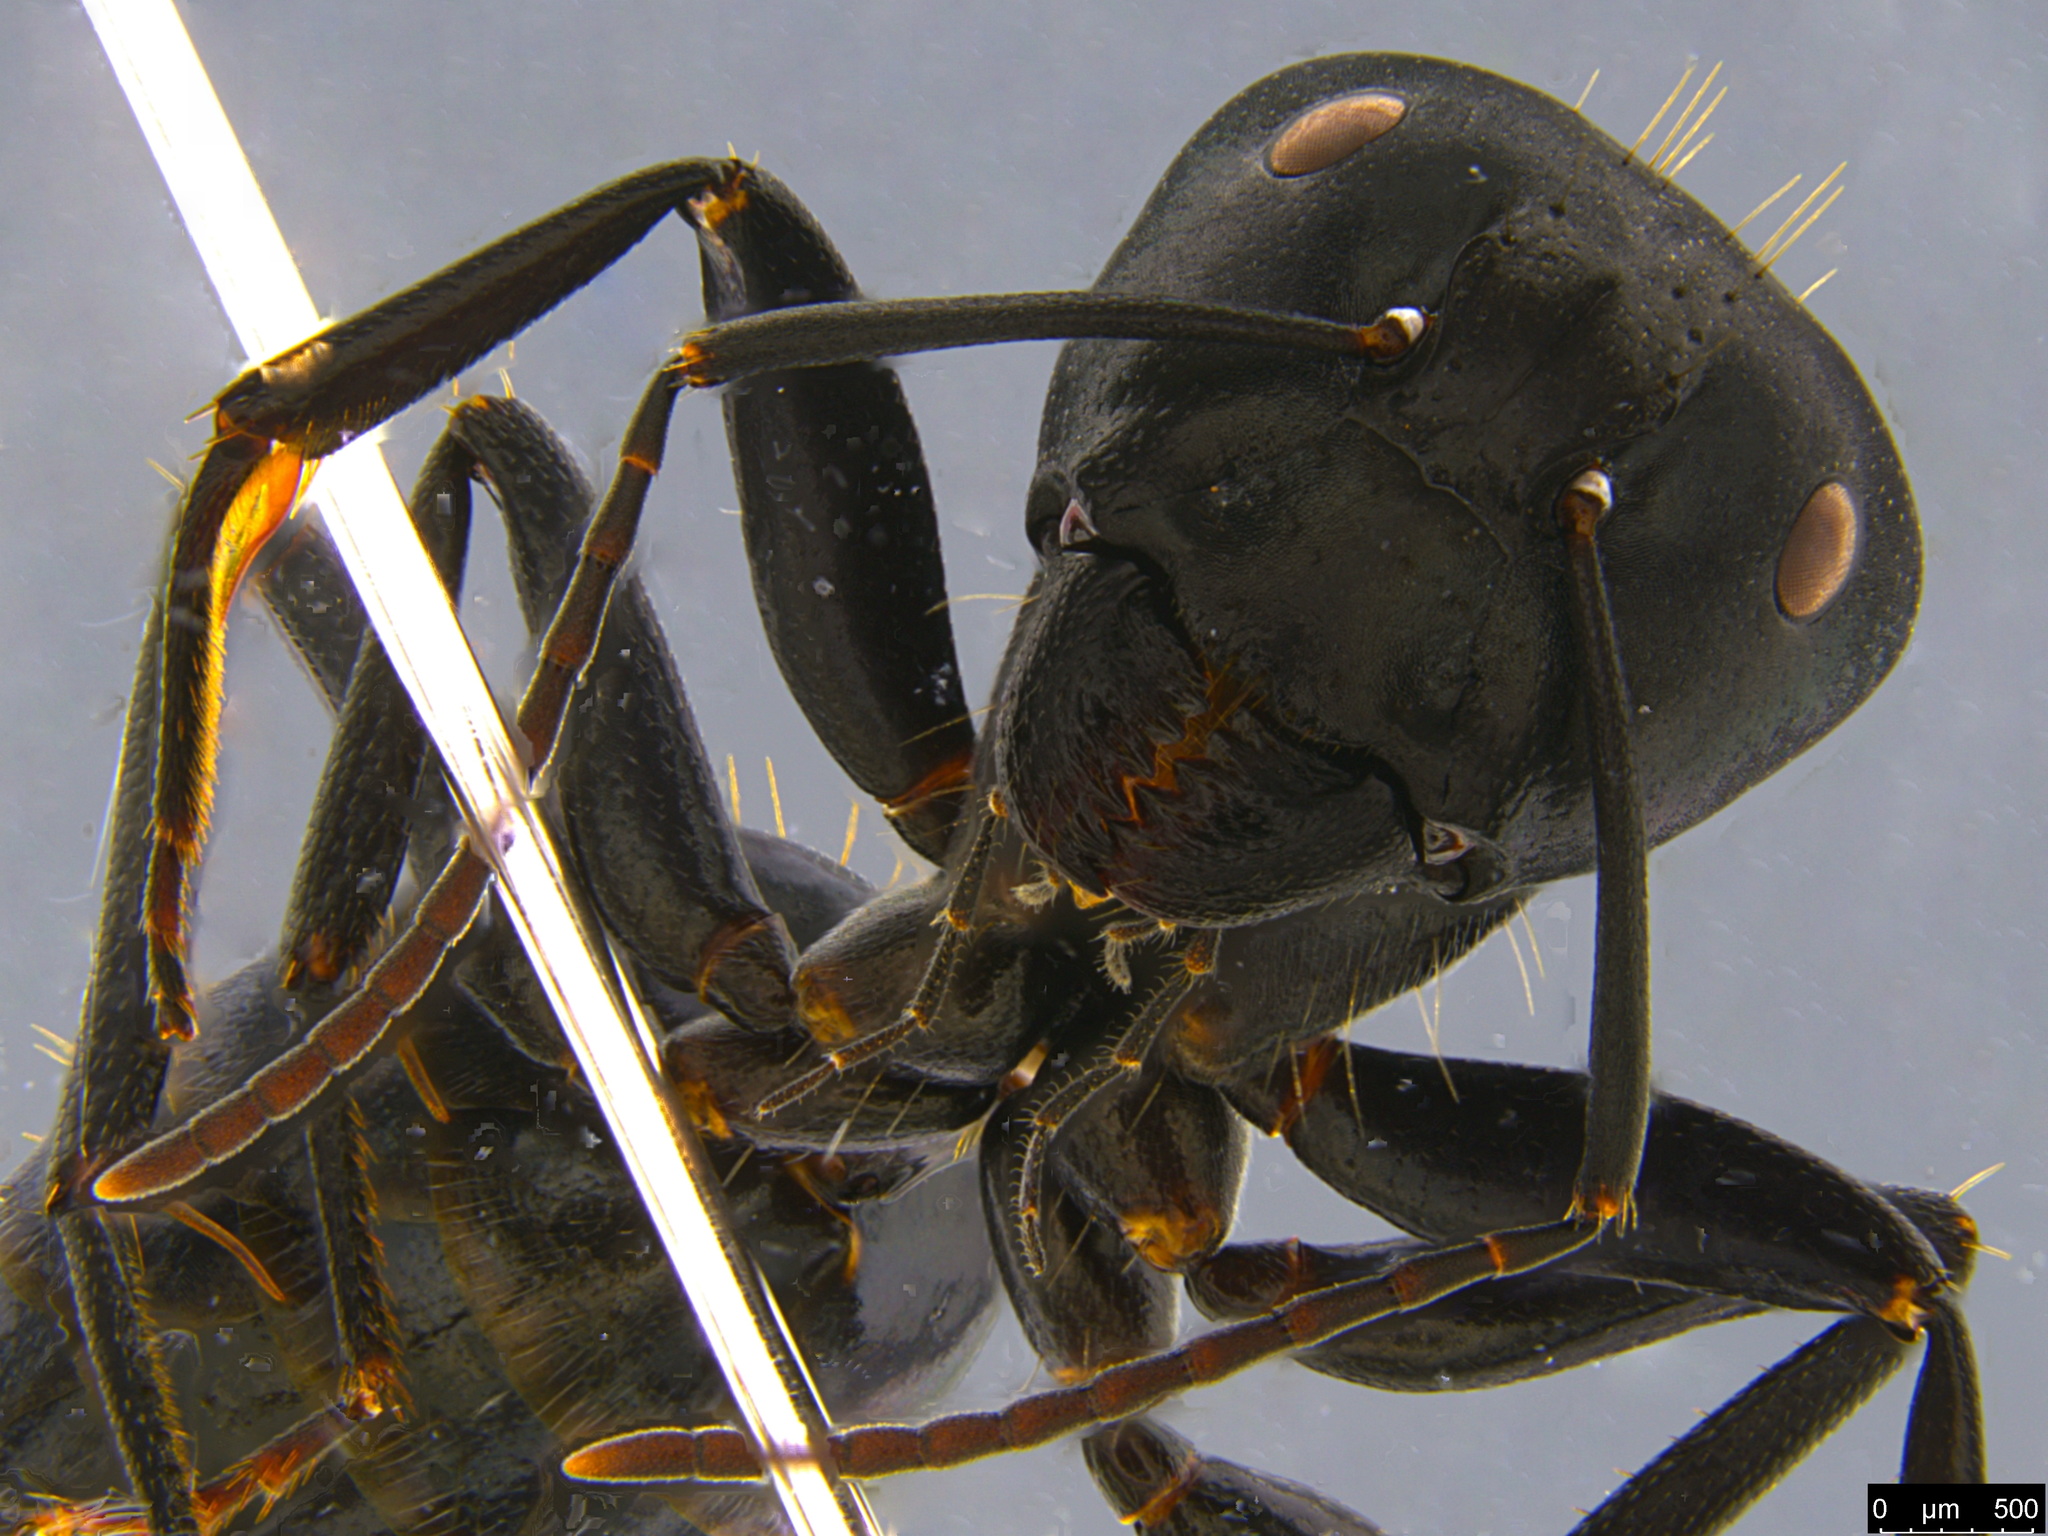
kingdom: Animalia
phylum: Arthropoda
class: Insecta
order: Hymenoptera
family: Formicidae
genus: Camponotus
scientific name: Camponotus aeneopilosus
